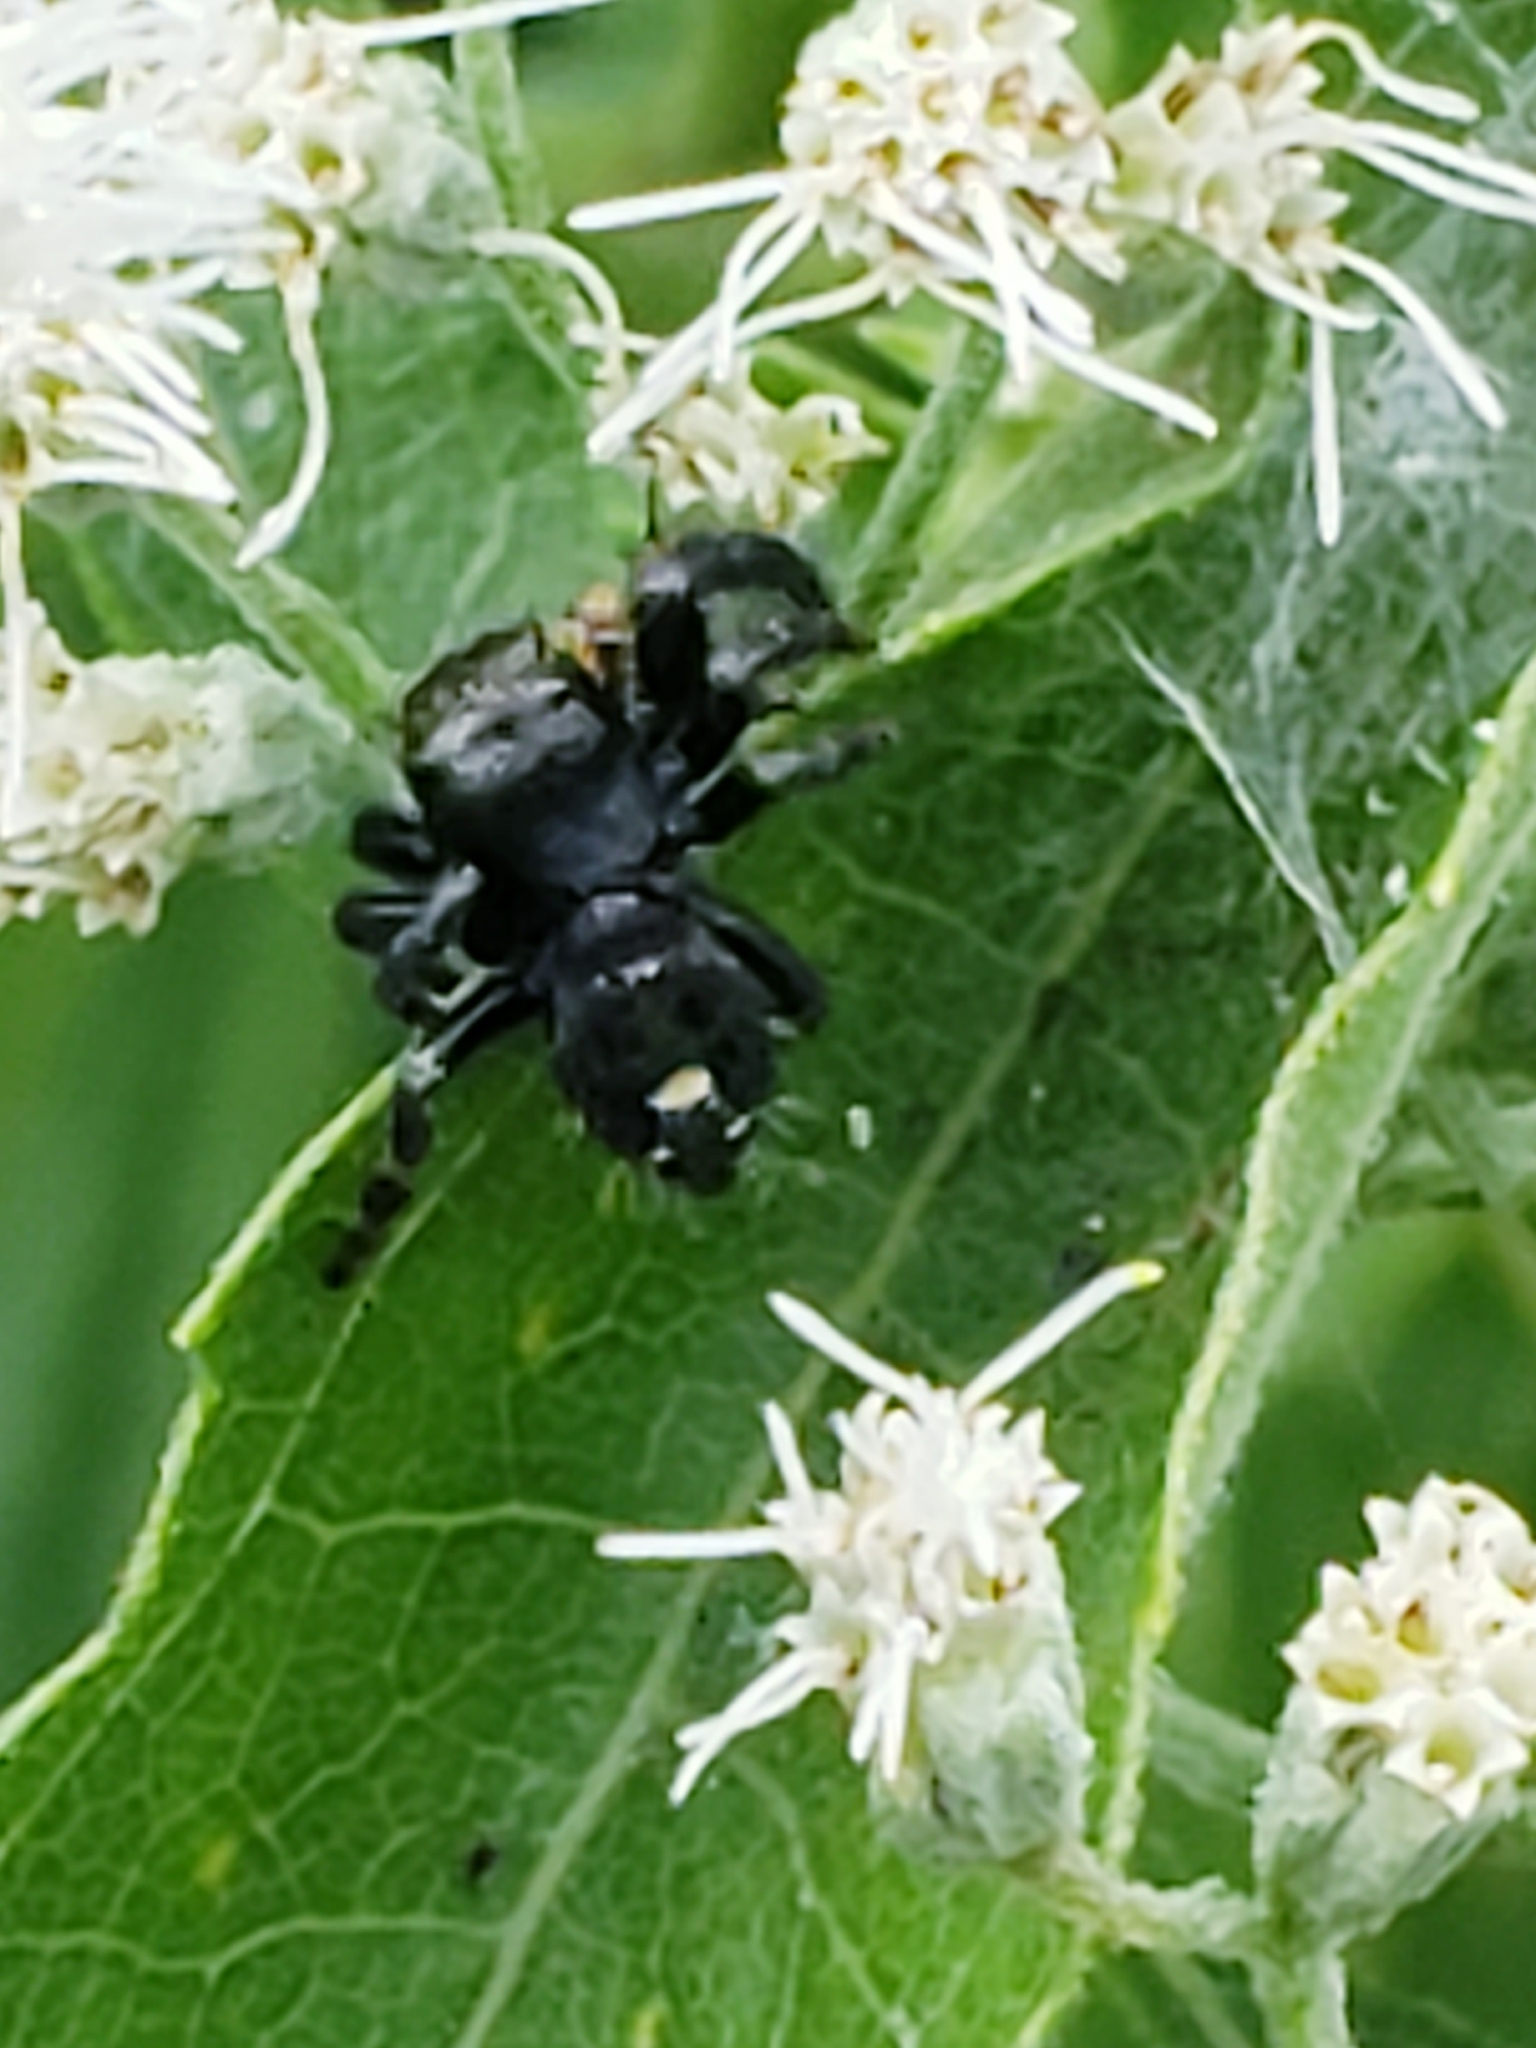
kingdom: Animalia
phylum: Arthropoda
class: Arachnida
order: Araneae
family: Salticidae
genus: Phidippus
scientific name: Phidippus audax
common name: Bold jumper
